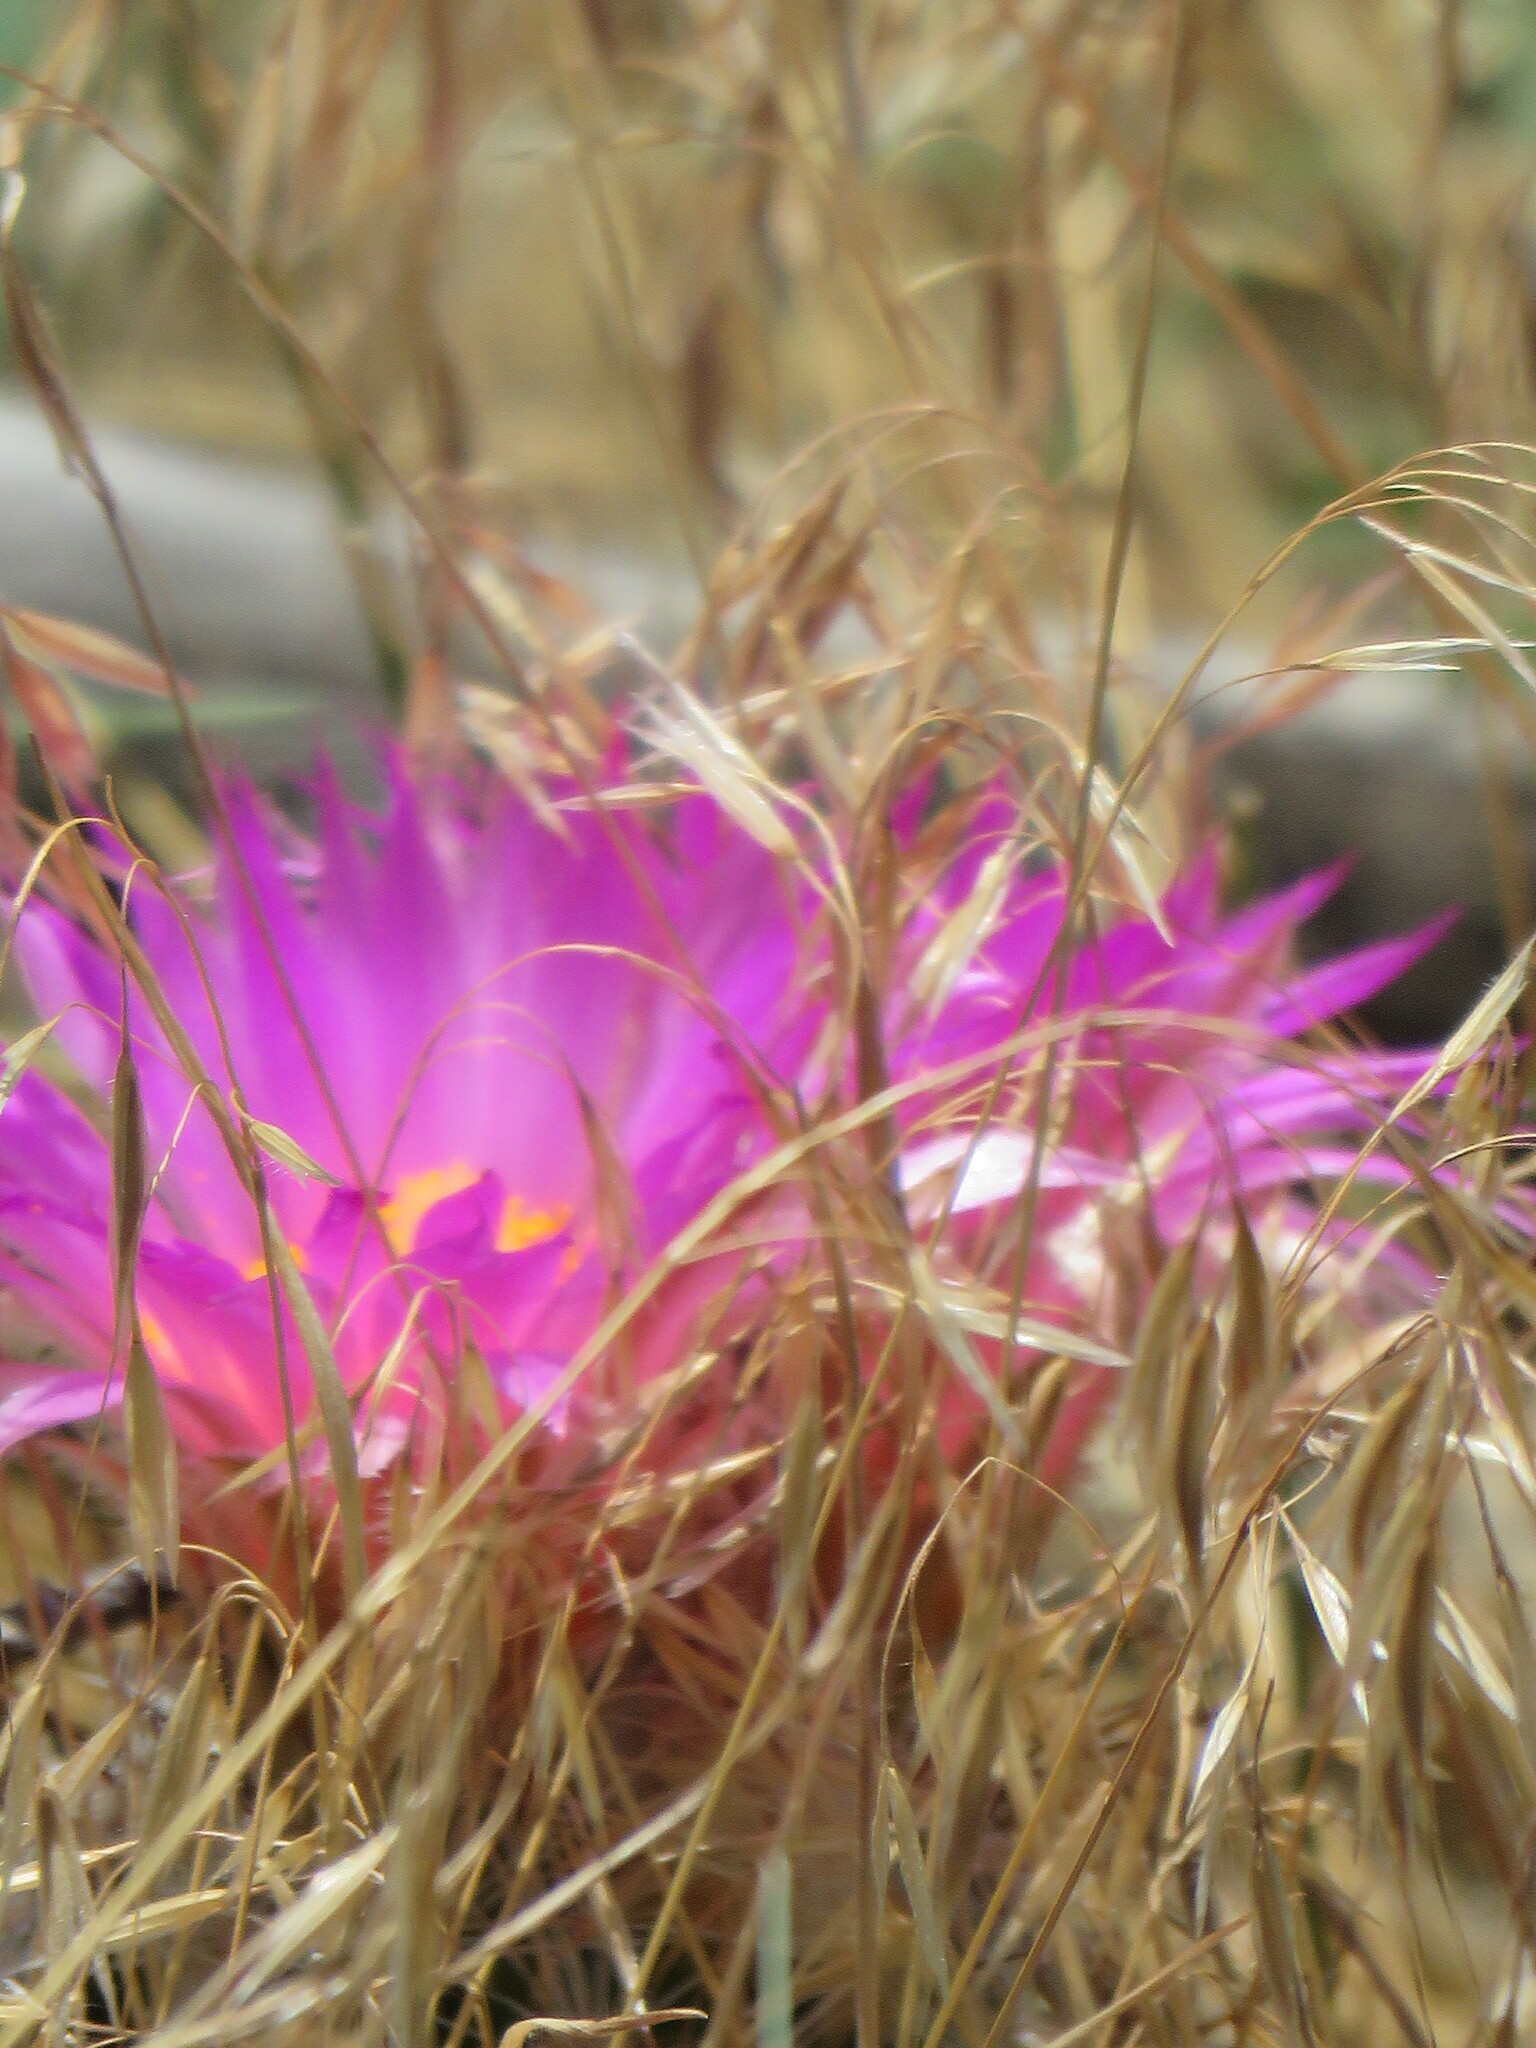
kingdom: Plantae
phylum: Tracheophyta
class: Magnoliopsida
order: Caryophyllales
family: Cactaceae
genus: Pelecyphora
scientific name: Pelecyphora vivipara
